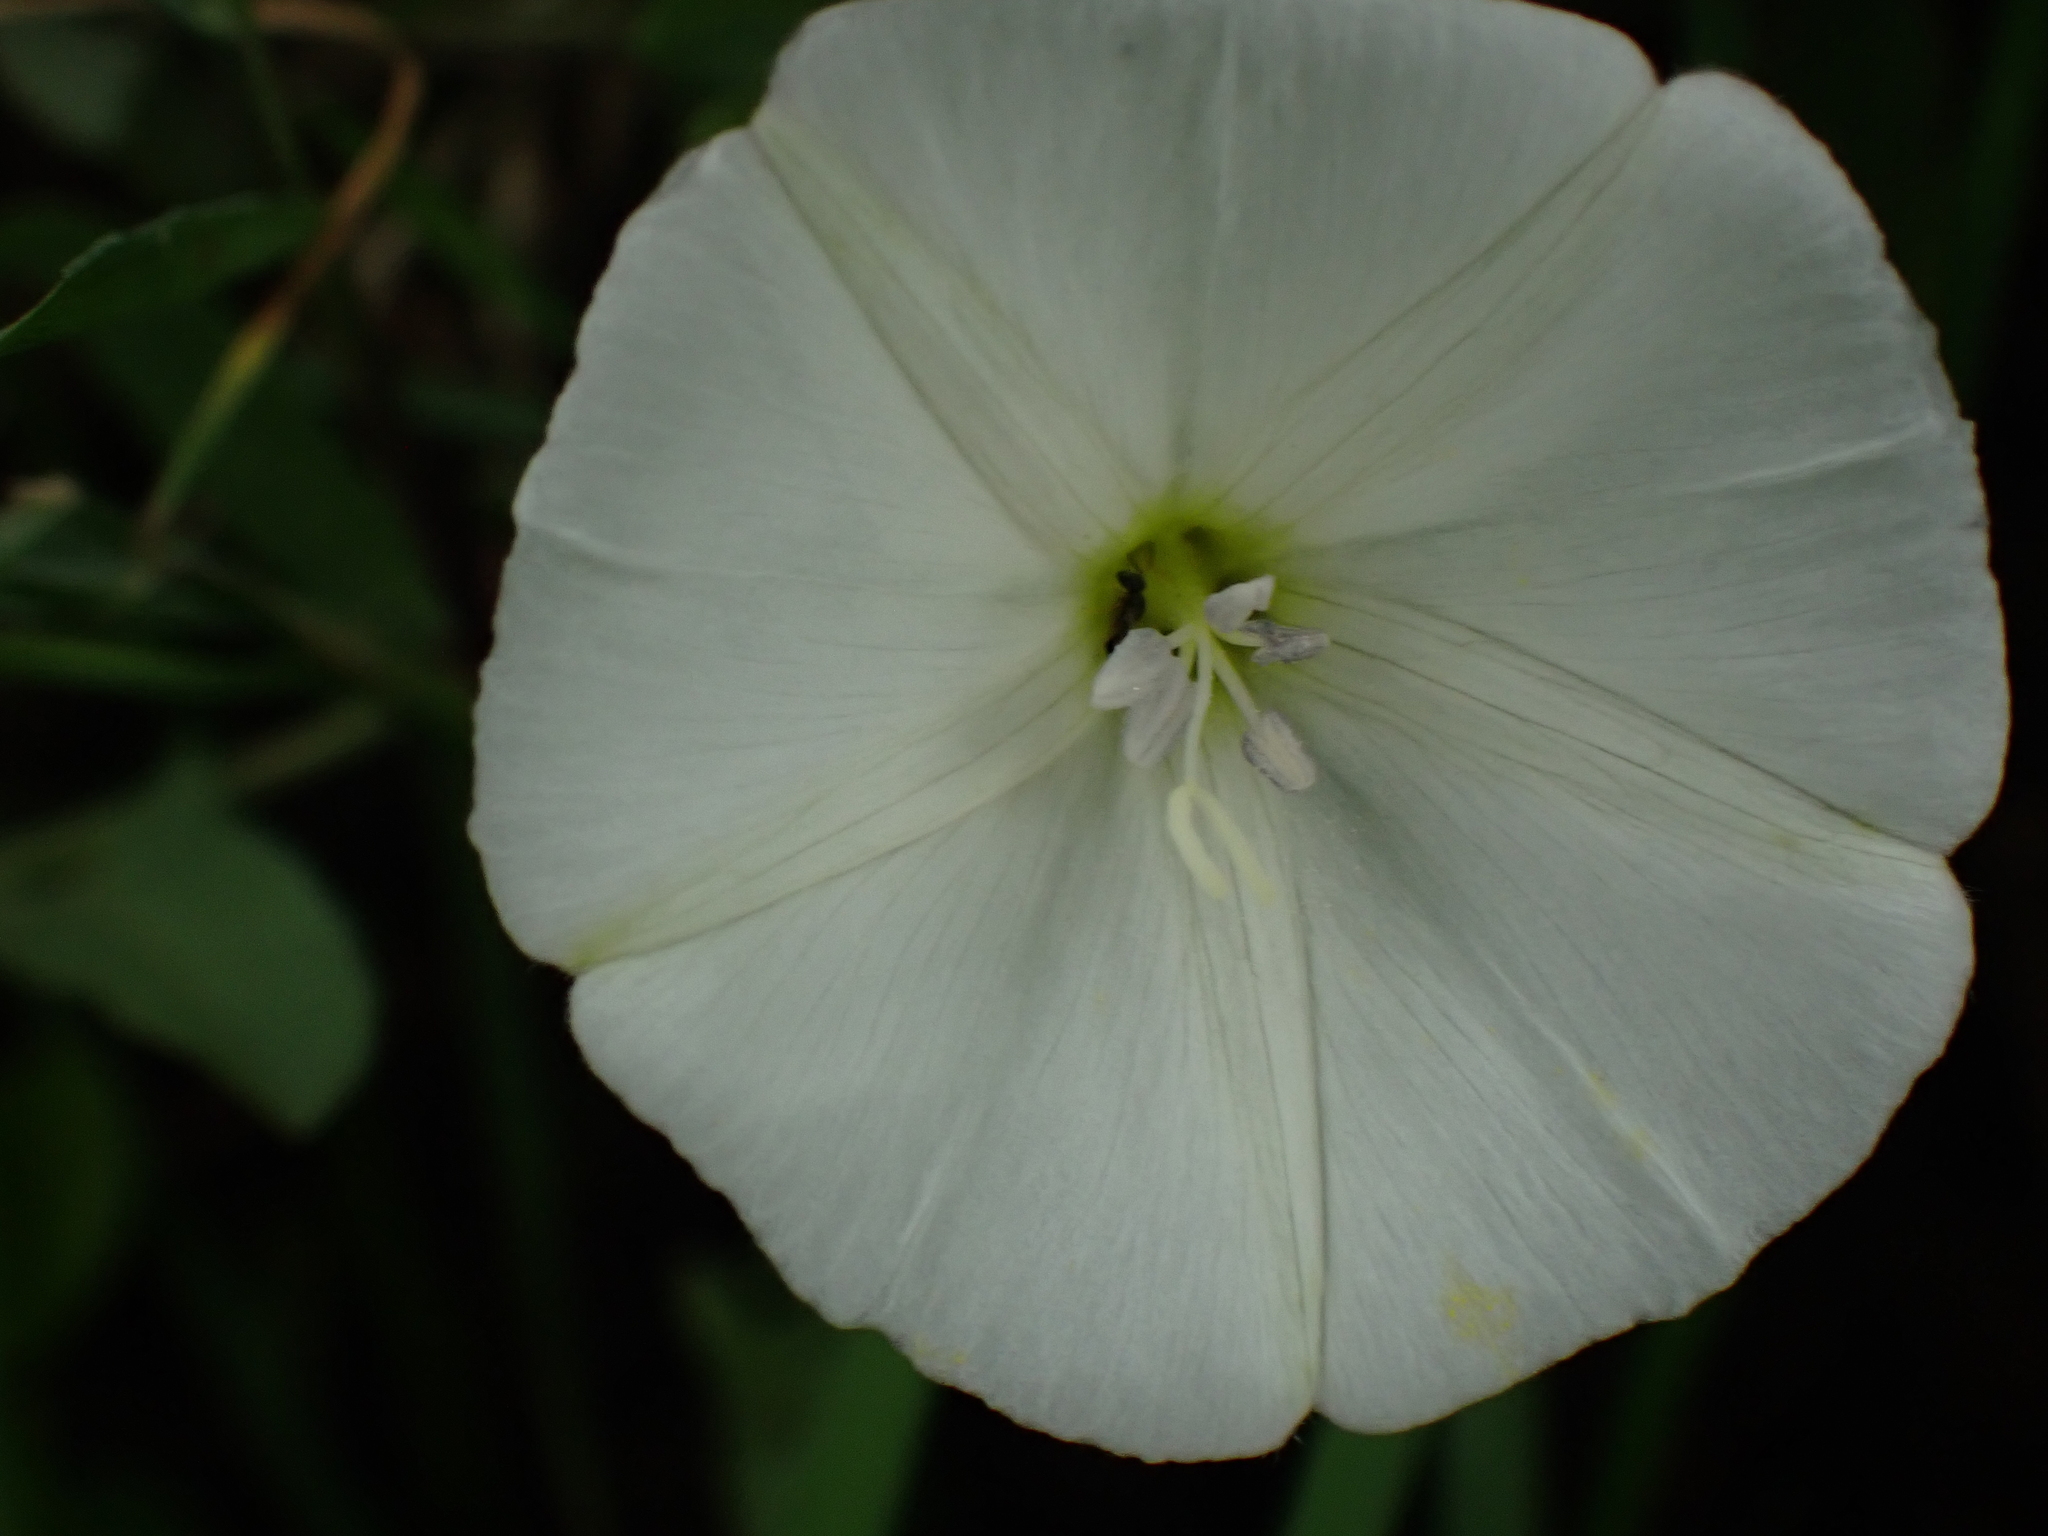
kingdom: Plantae
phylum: Tracheophyta
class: Magnoliopsida
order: Solanales
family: Convolvulaceae
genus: Convolvulus
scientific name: Convolvulus arvensis
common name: Field bindweed
